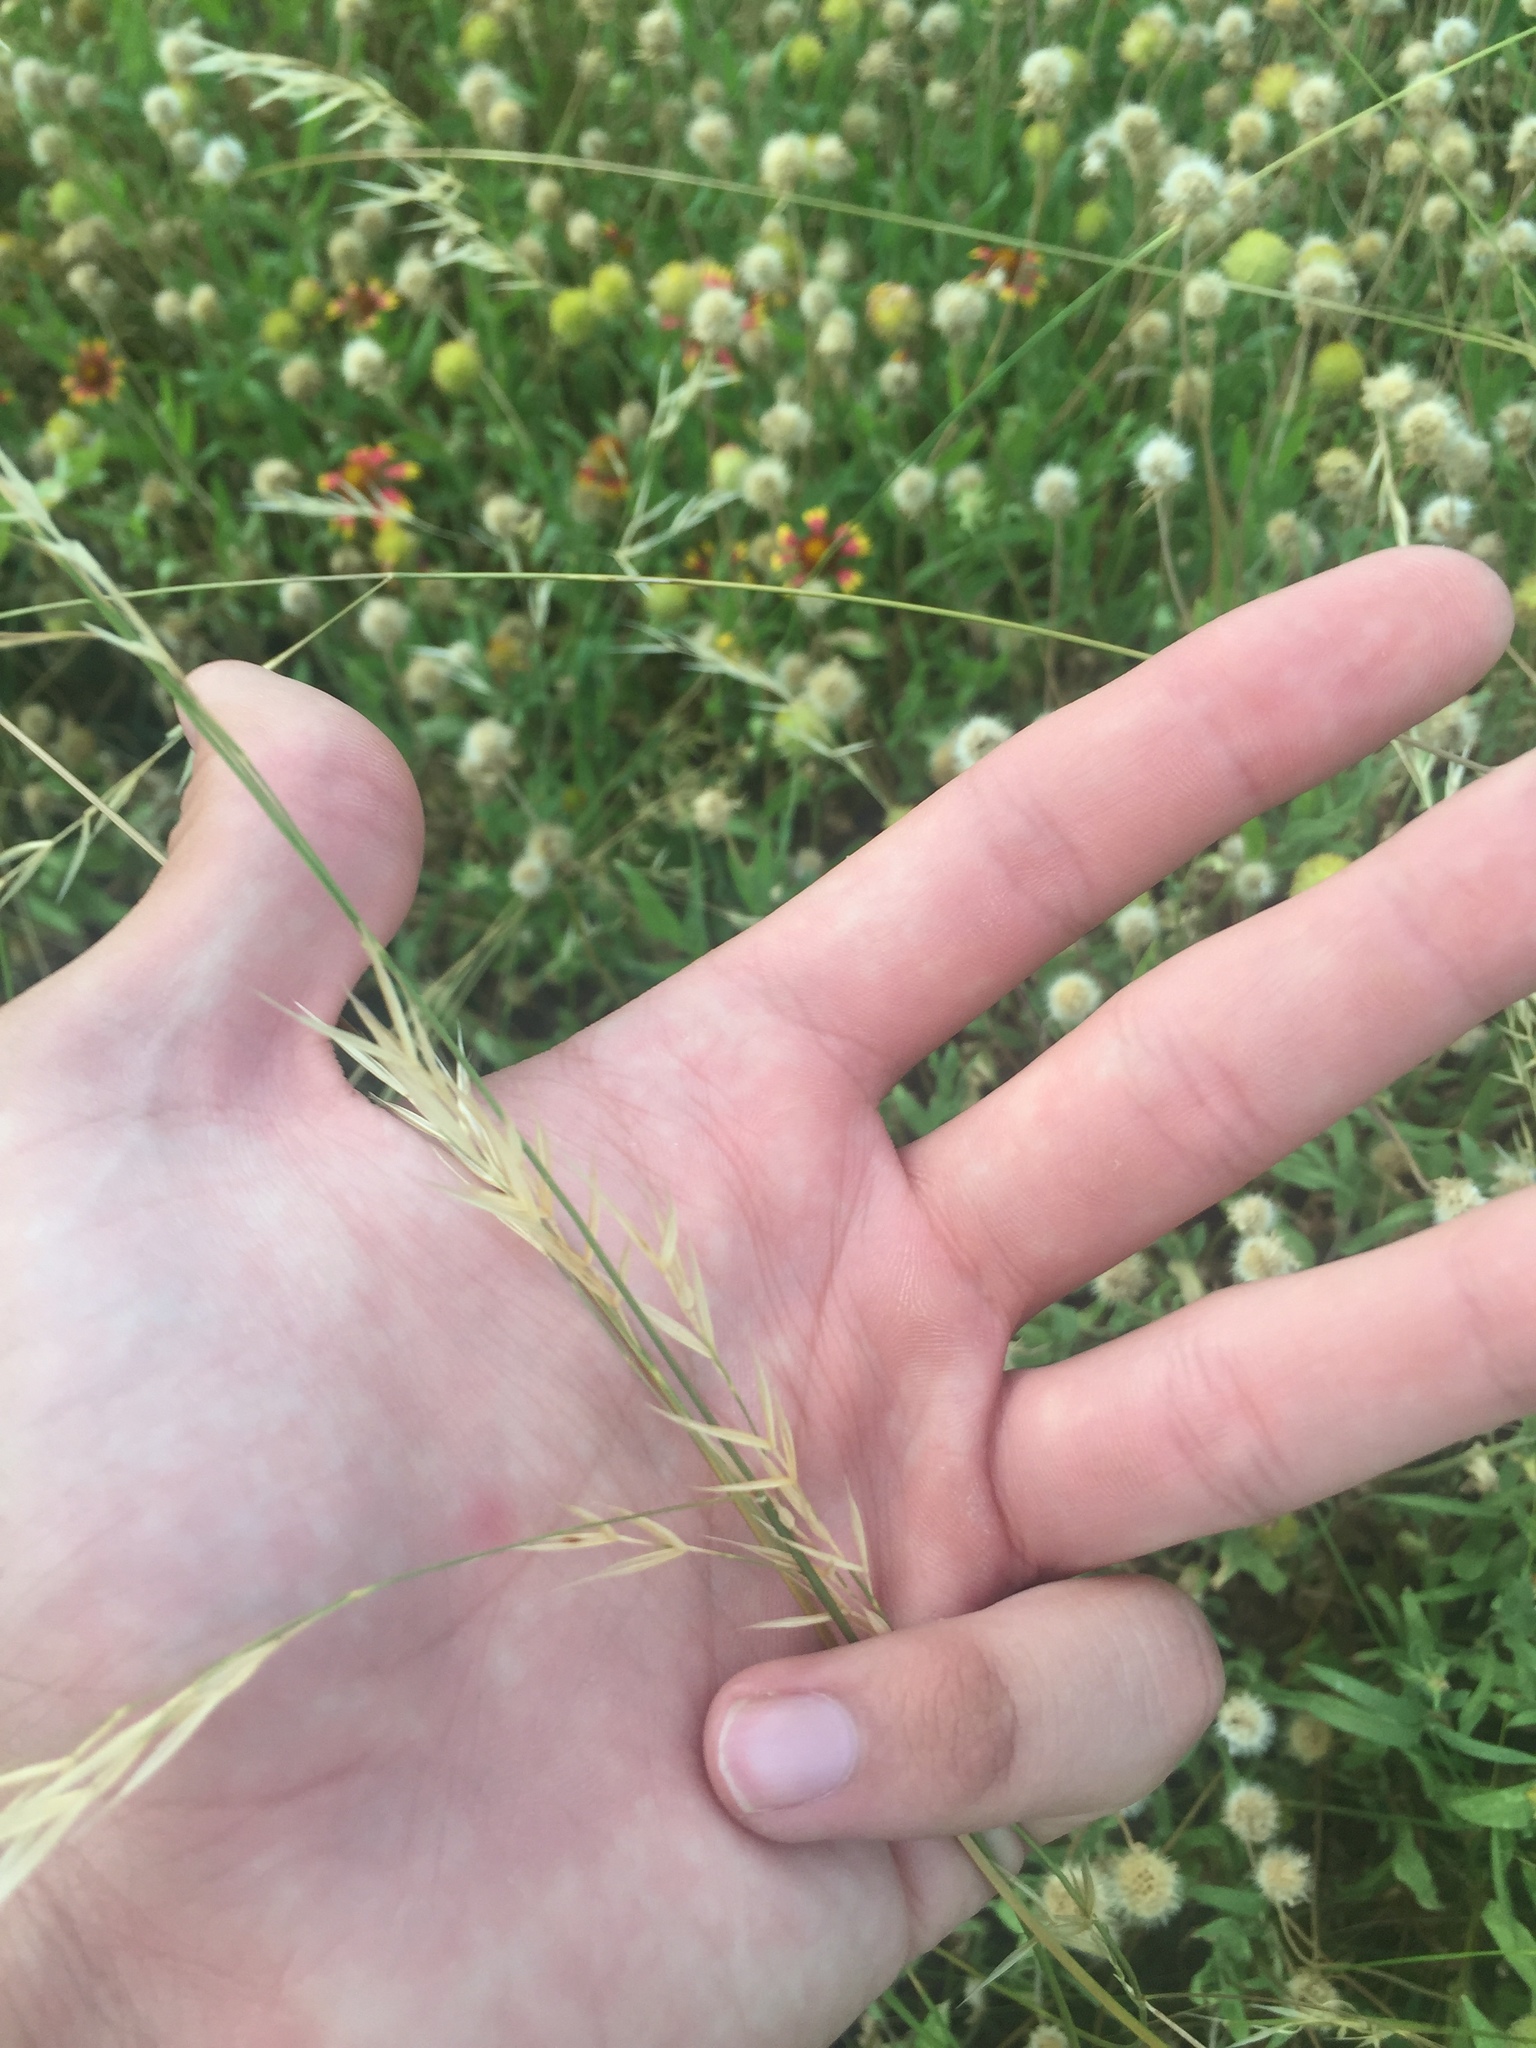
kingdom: Plantae
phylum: Tracheophyta
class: Liliopsida
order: Poales
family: Poaceae
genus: Nassella
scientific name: Nassella leucotricha
